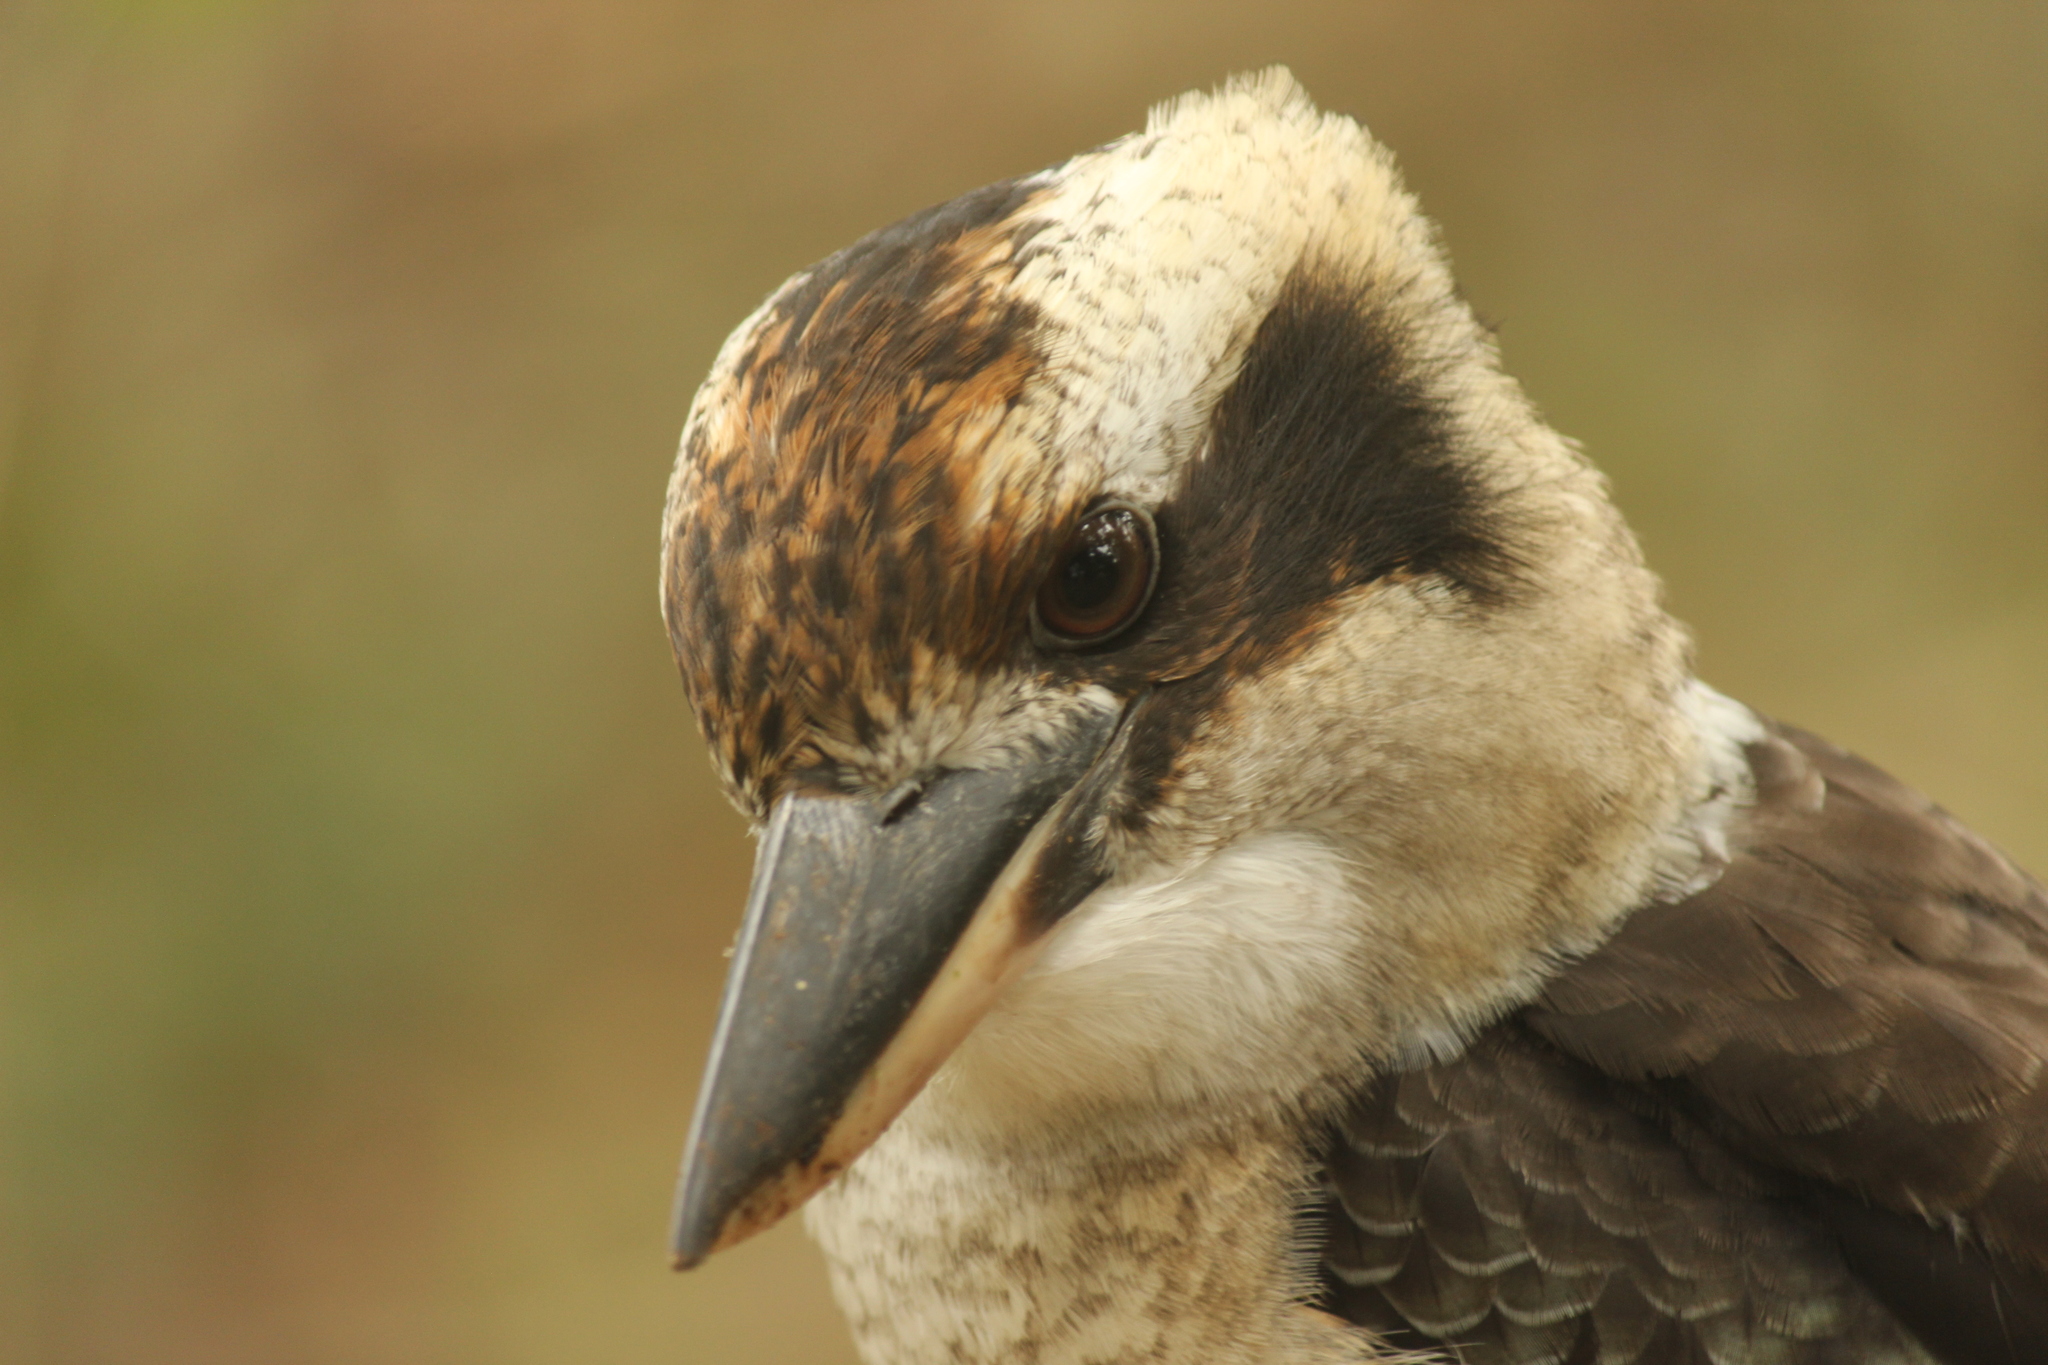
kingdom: Animalia
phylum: Chordata
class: Aves
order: Coraciiformes
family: Alcedinidae
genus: Dacelo
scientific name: Dacelo novaeguineae
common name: Laughing kookaburra
